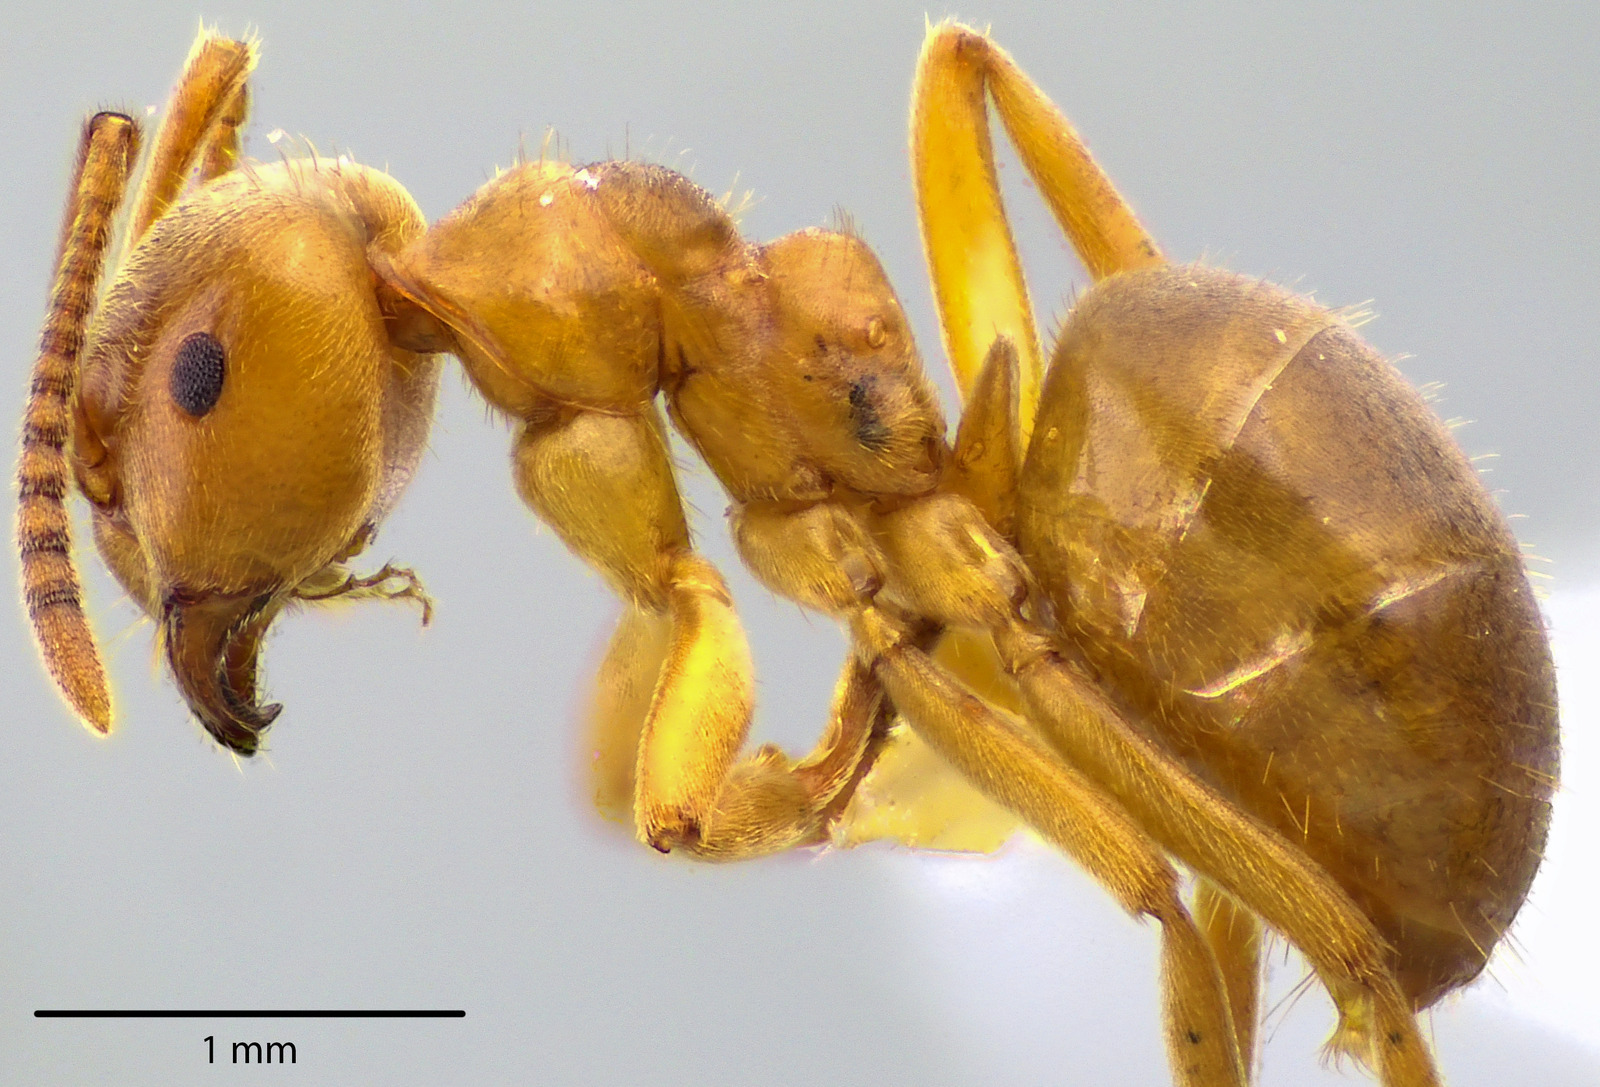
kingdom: Animalia
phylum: Arthropoda
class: Insecta
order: Hymenoptera
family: Formicidae
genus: Lasius
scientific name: Lasius aphidicola
